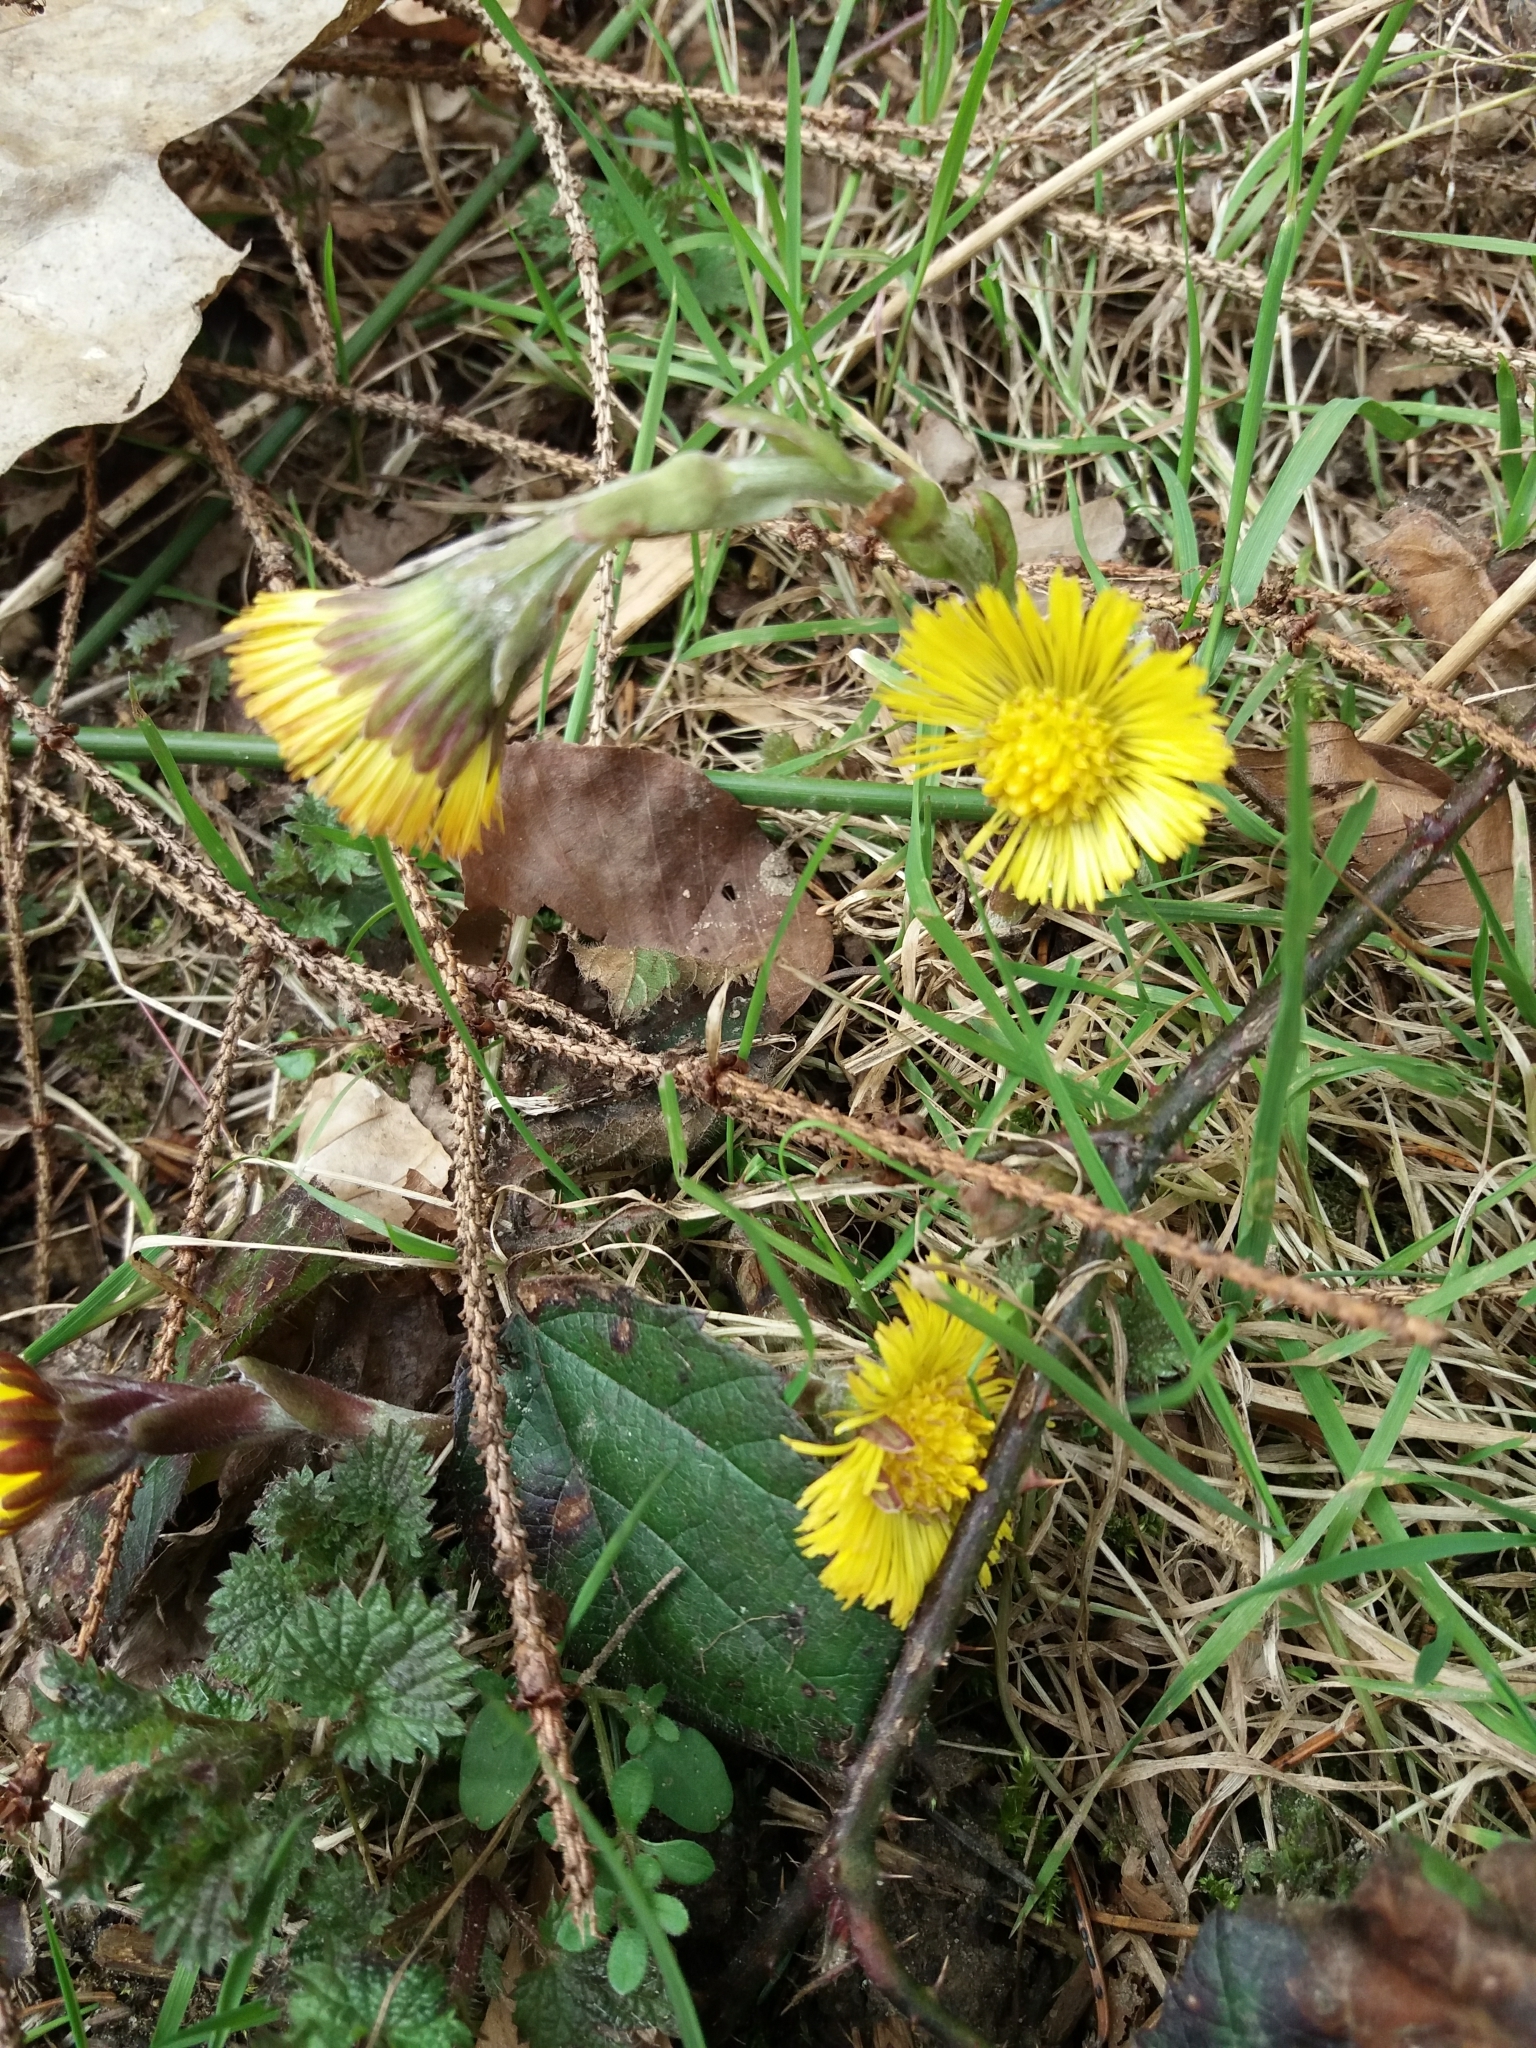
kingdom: Plantae
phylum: Tracheophyta
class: Magnoliopsida
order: Asterales
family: Asteraceae
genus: Tussilago
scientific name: Tussilago farfara
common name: Coltsfoot
